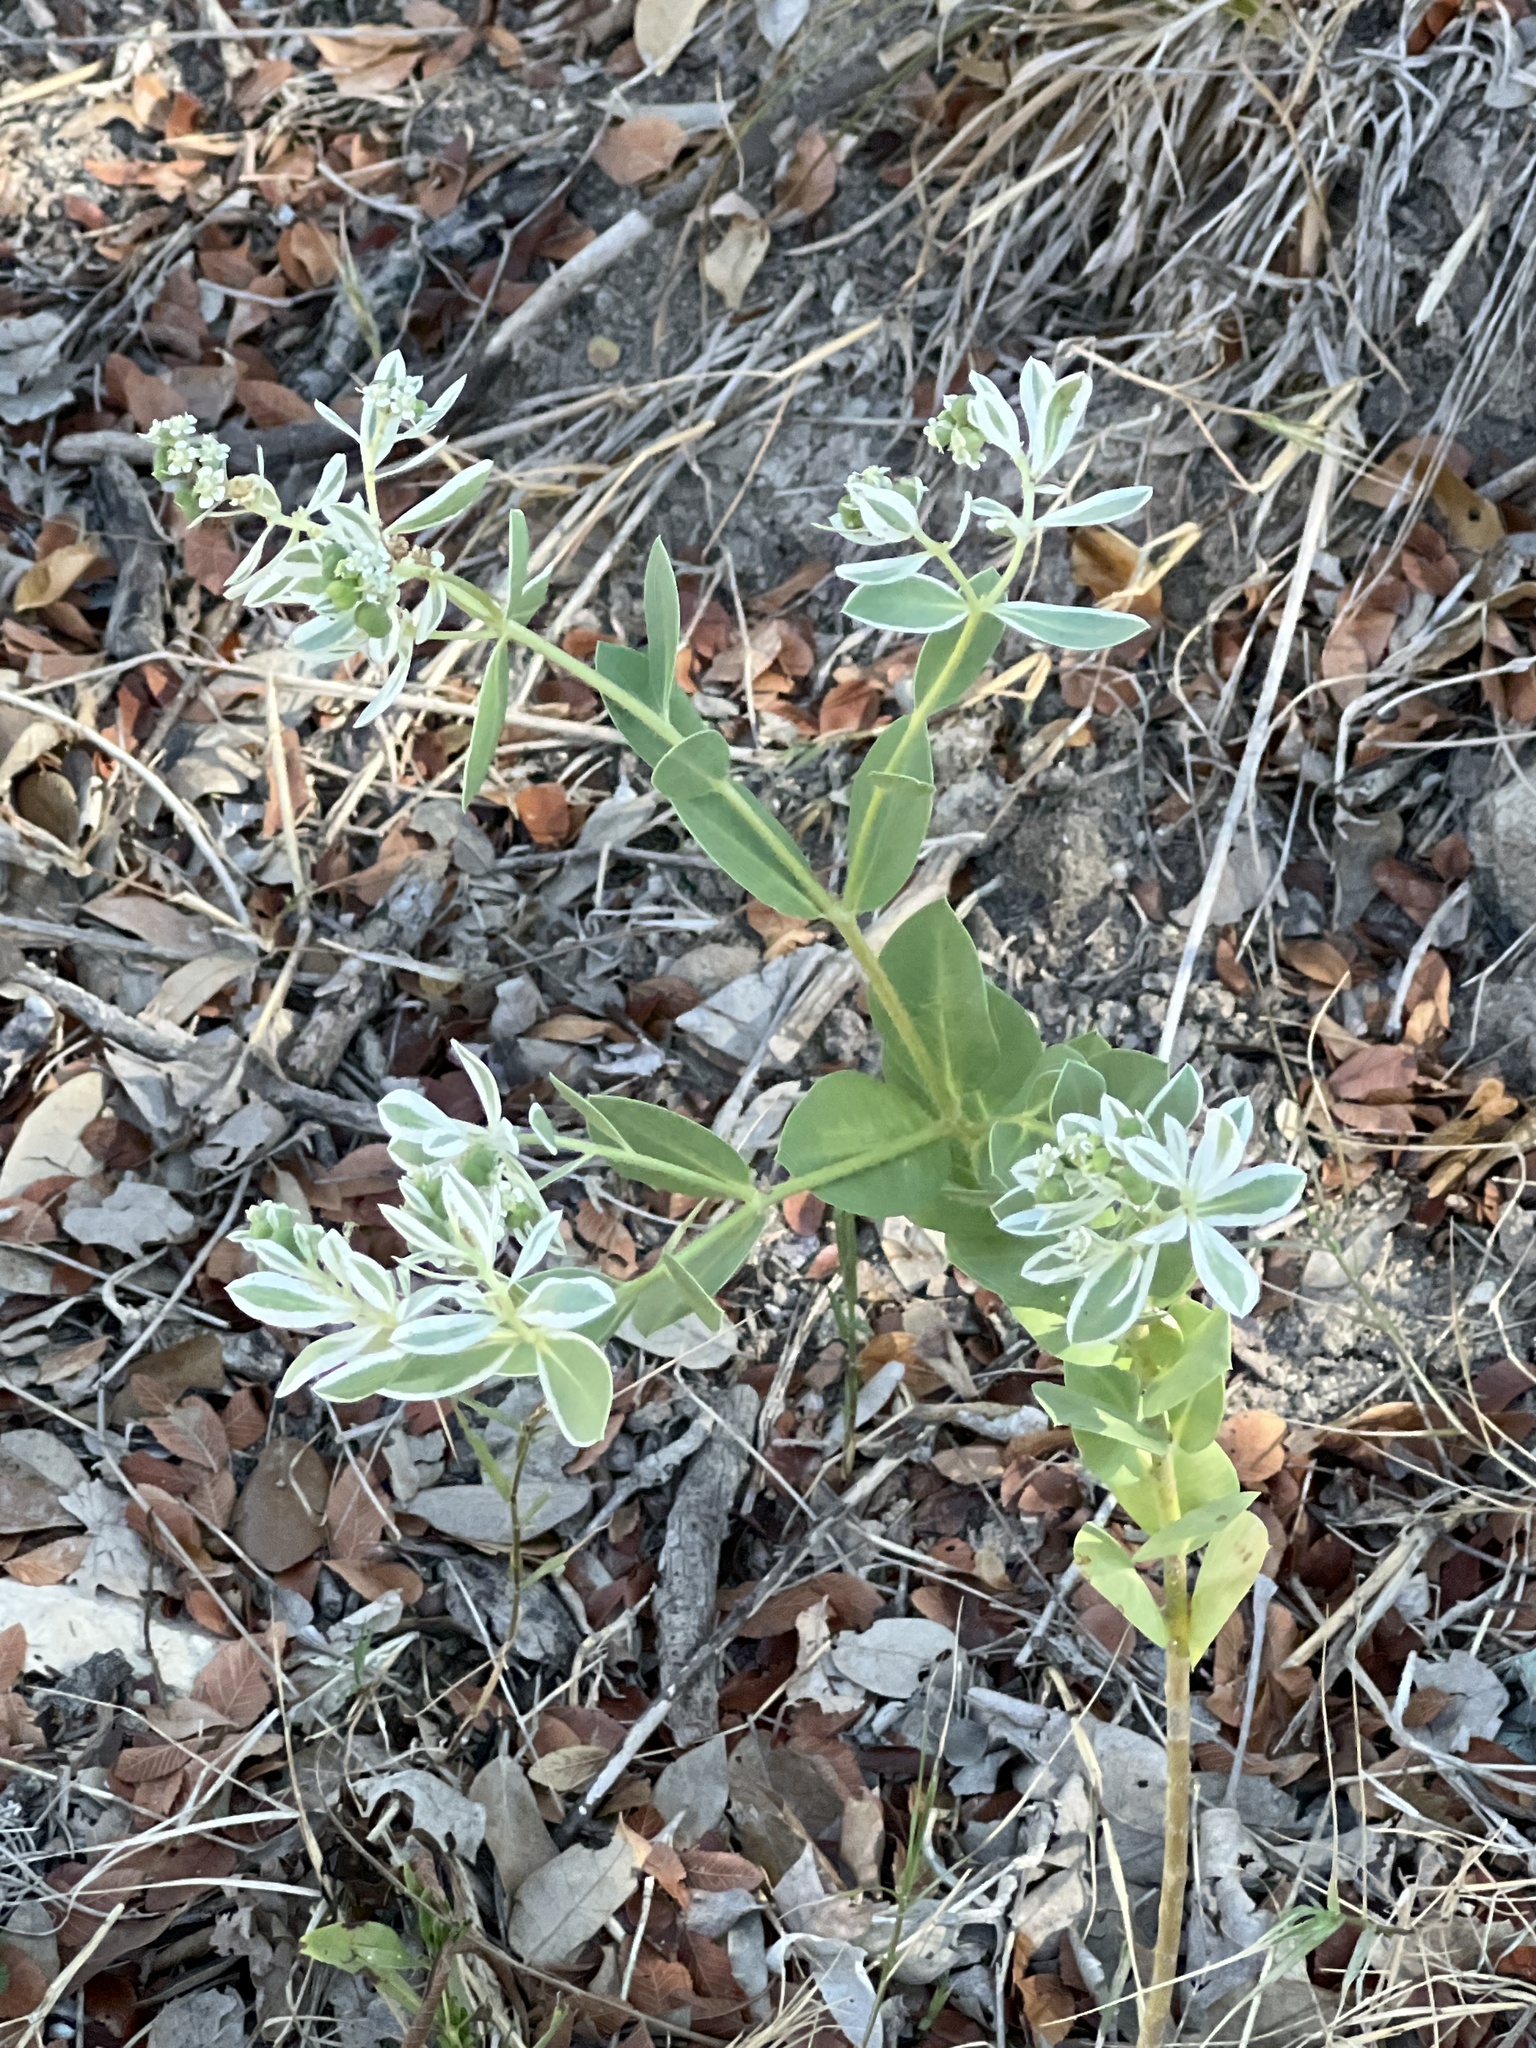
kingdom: Plantae
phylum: Tracheophyta
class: Magnoliopsida
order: Malpighiales
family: Euphorbiaceae
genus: Euphorbia
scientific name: Euphorbia marginata
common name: Ghostweed
